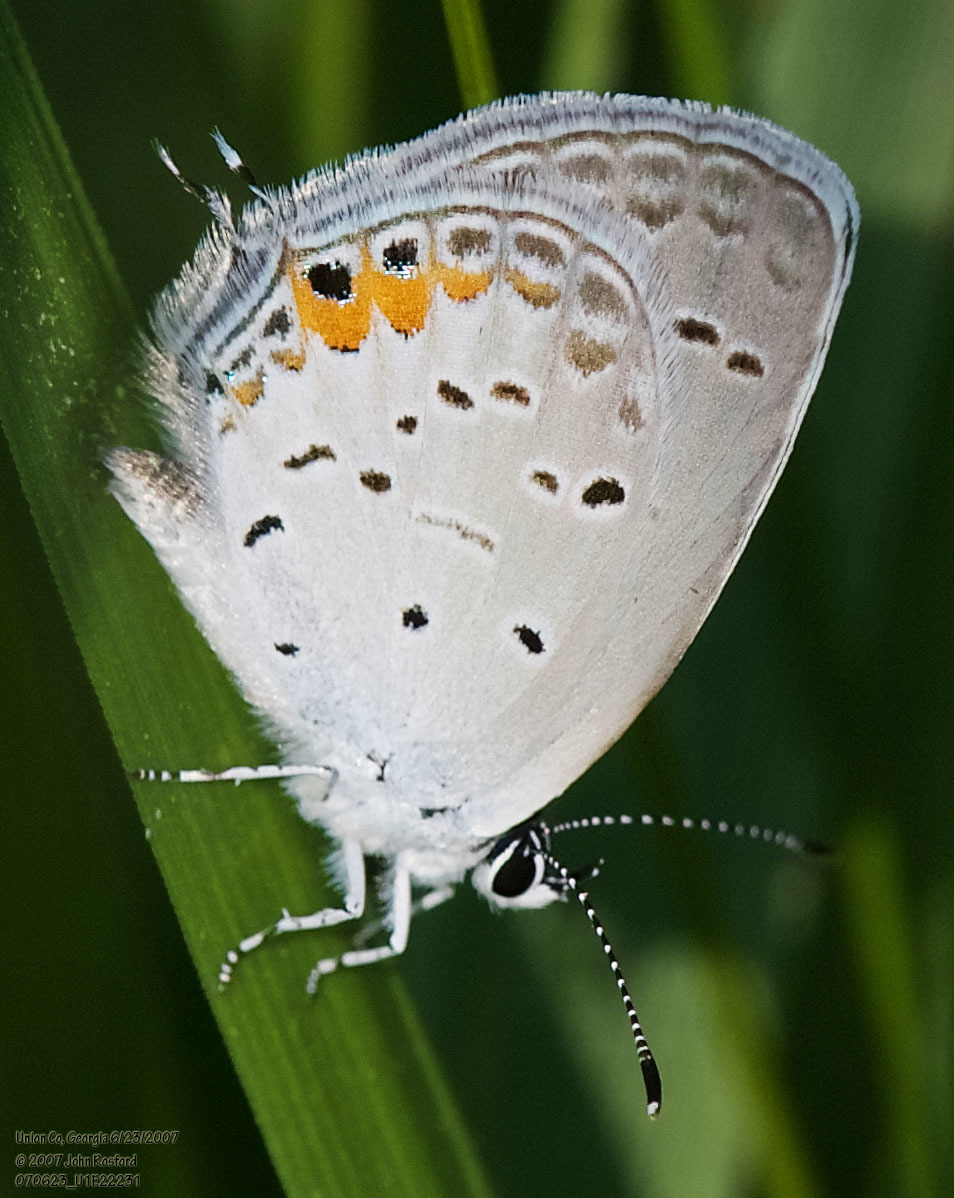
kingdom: Animalia
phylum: Arthropoda
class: Insecta
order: Lepidoptera
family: Lycaenidae
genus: Elkalyce
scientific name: Elkalyce comyntas
